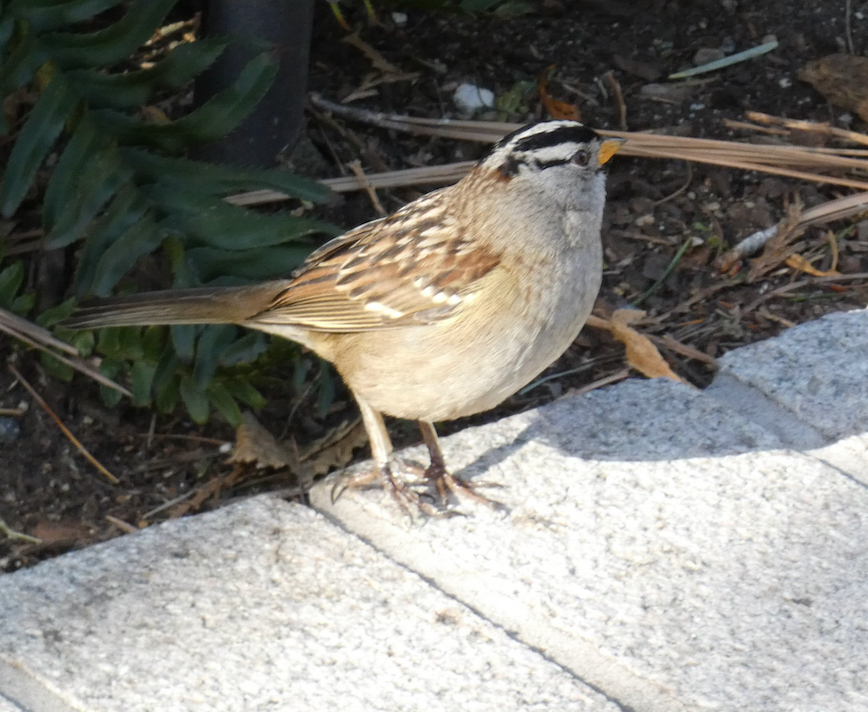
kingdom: Animalia
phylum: Chordata
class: Aves
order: Passeriformes
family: Passerellidae
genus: Zonotrichia
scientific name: Zonotrichia leucophrys
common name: White-crowned sparrow
